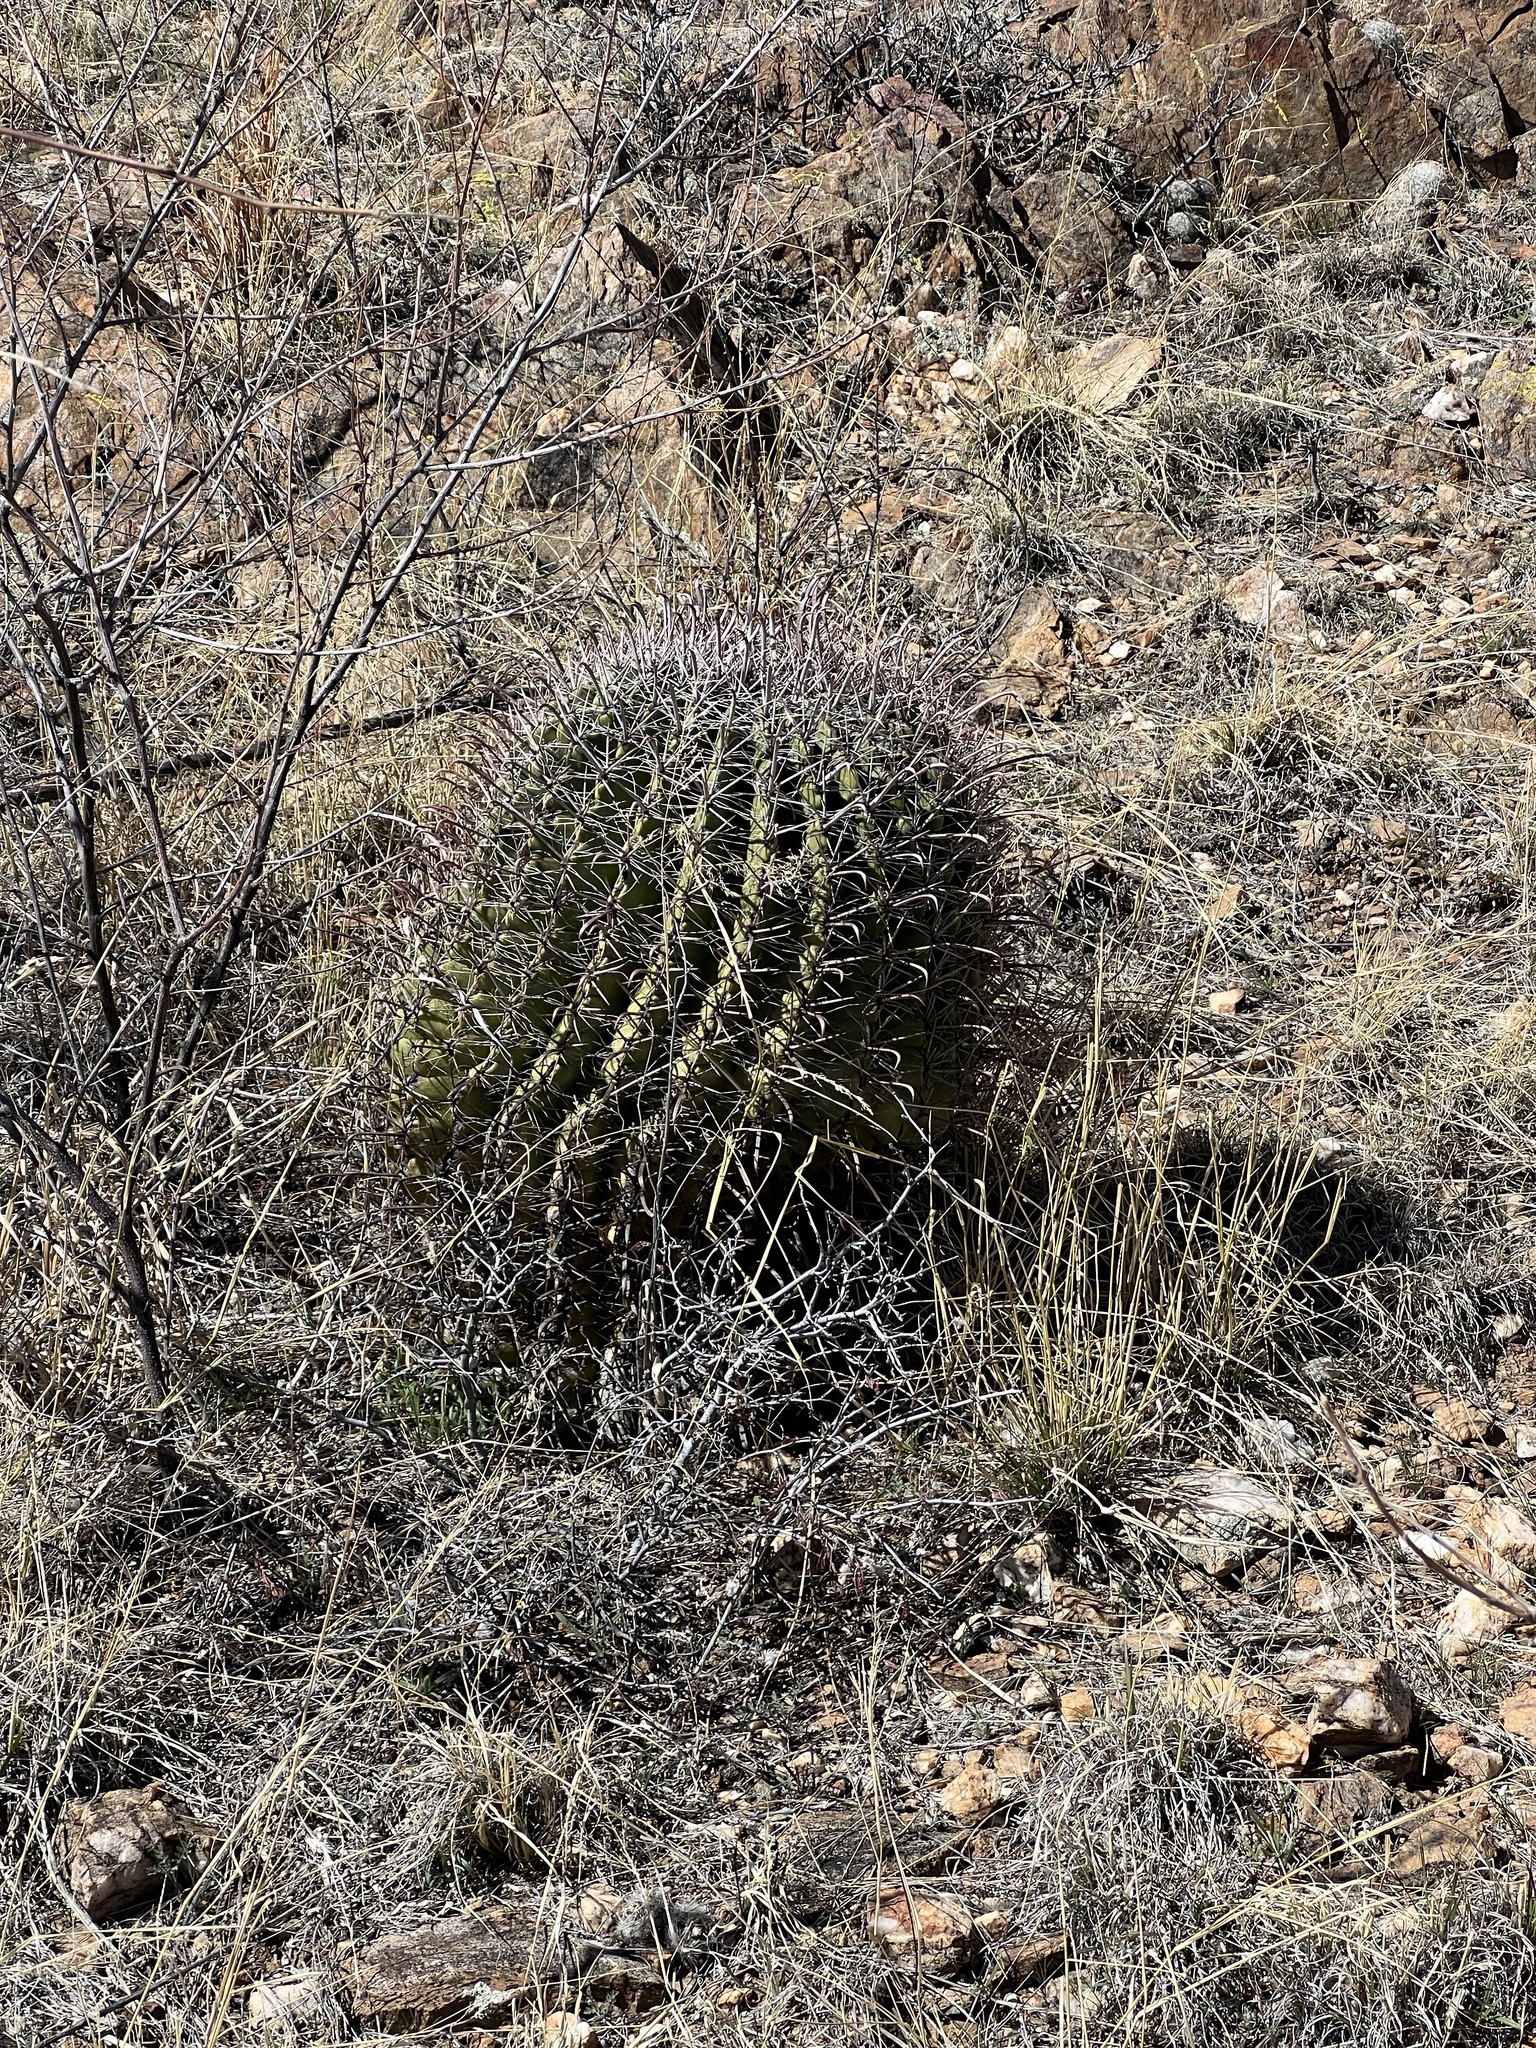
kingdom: Plantae
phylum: Tracheophyta
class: Magnoliopsida
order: Caryophyllales
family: Cactaceae
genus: Ferocactus
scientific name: Ferocactus wislizeni
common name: Candy barrel cactus
